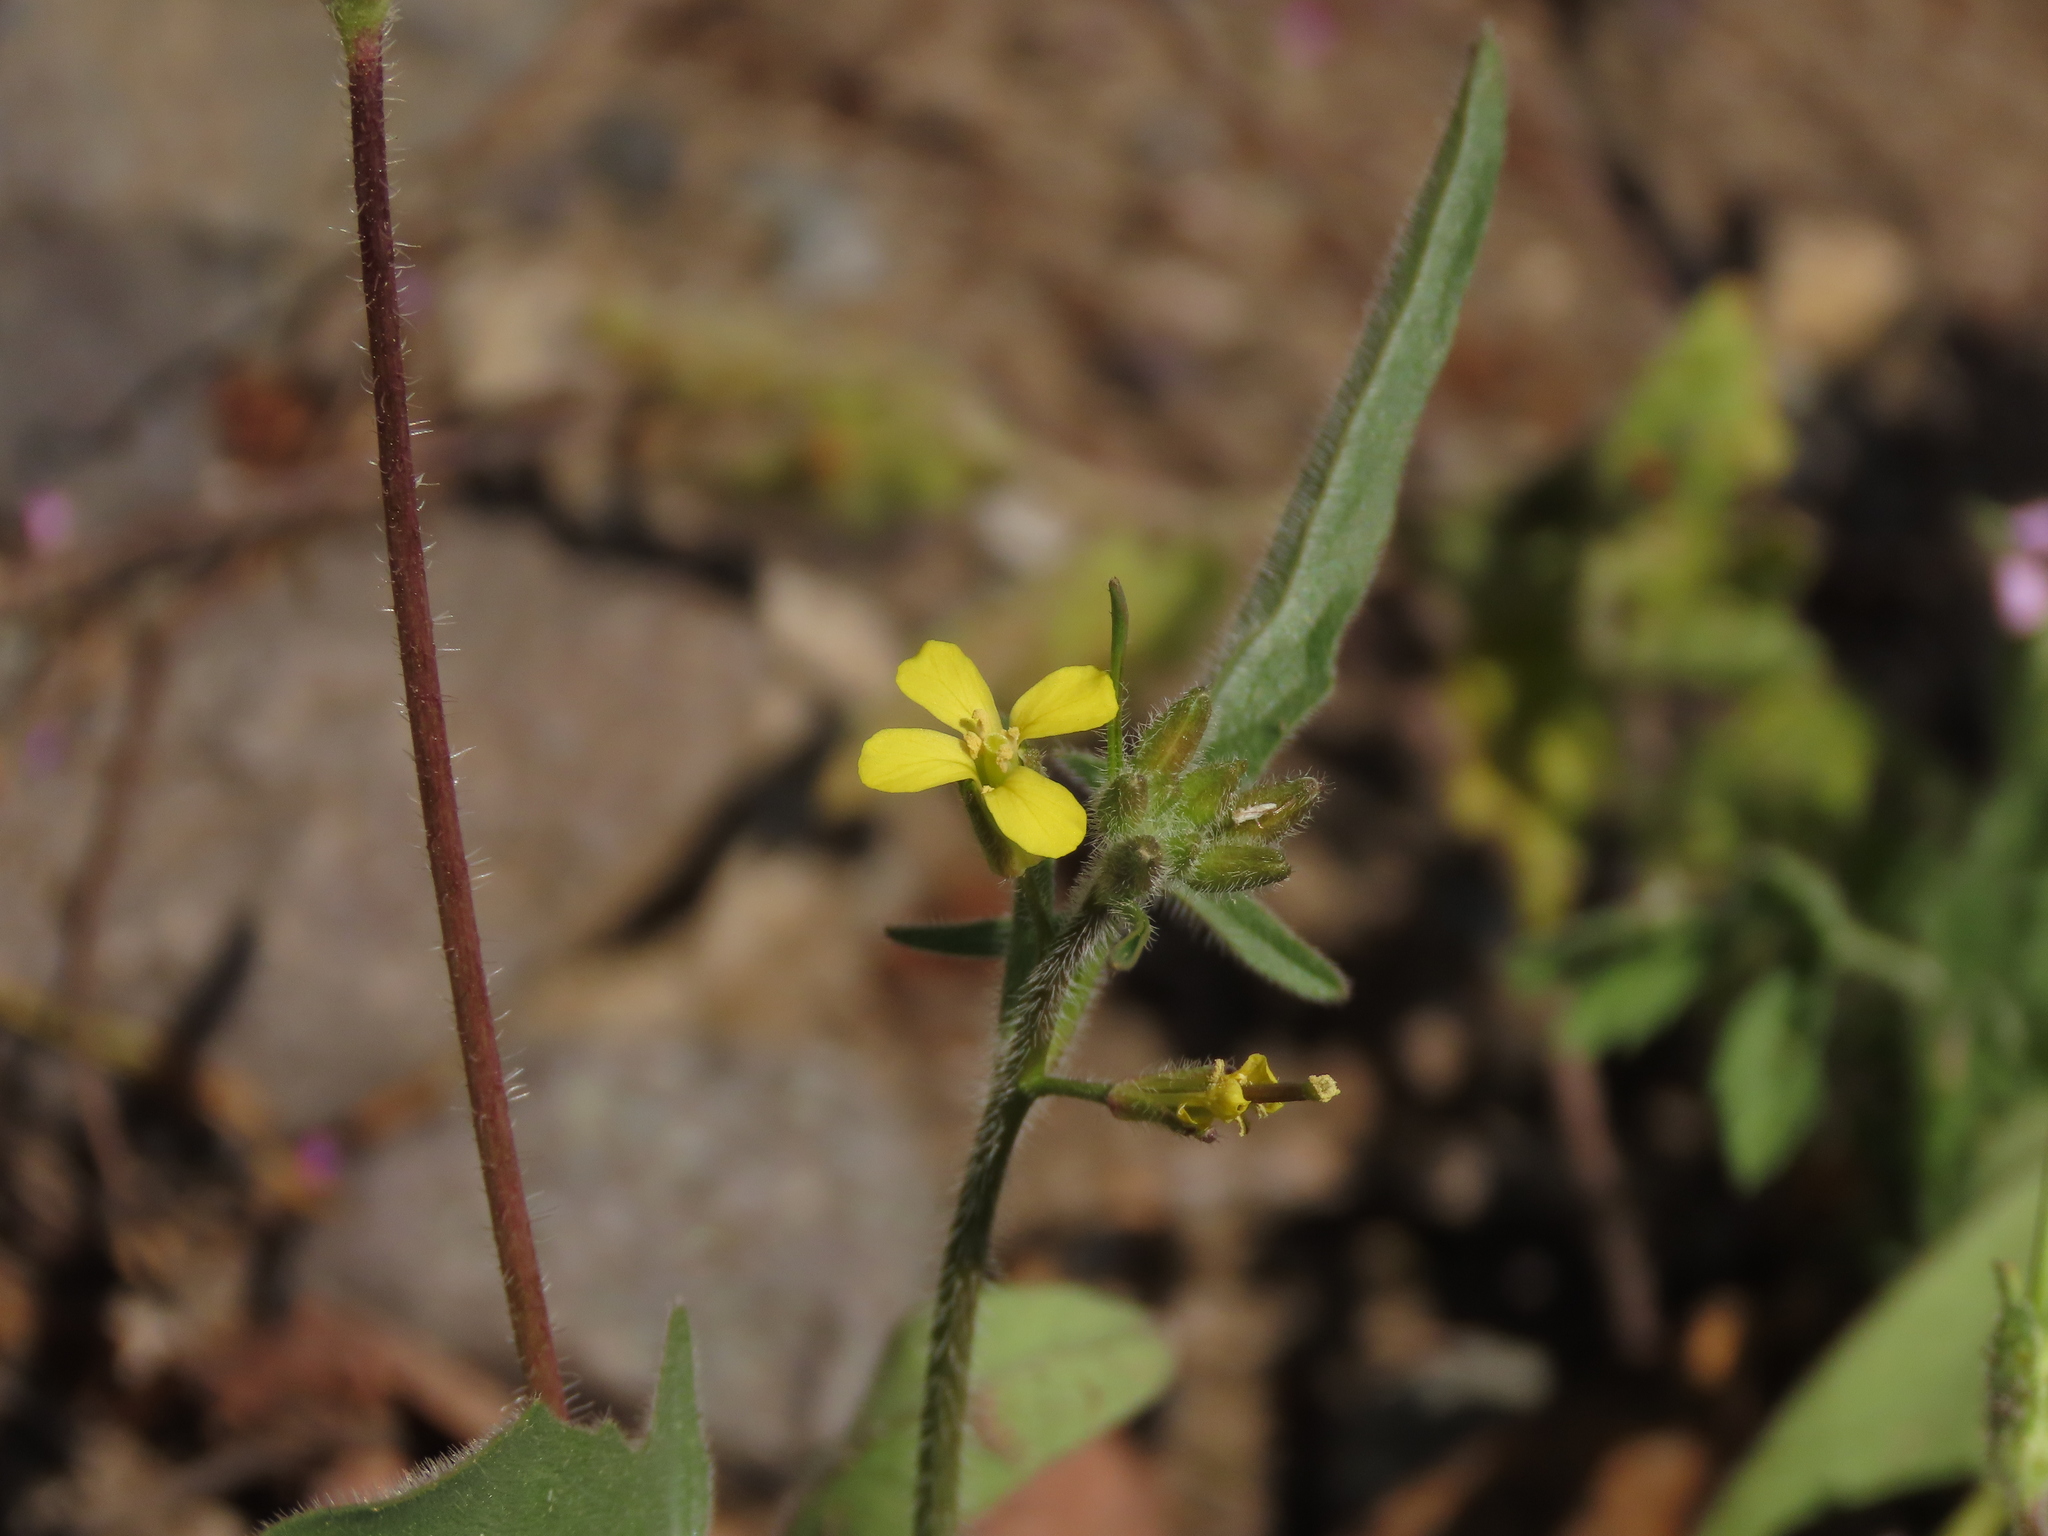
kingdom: Plantae
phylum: Tracheophyta
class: Magnoliopsida
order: Brassicales
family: Brassicaceae
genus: Sisymbrium
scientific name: Sisymbrium officinale
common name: Hedge mustard
